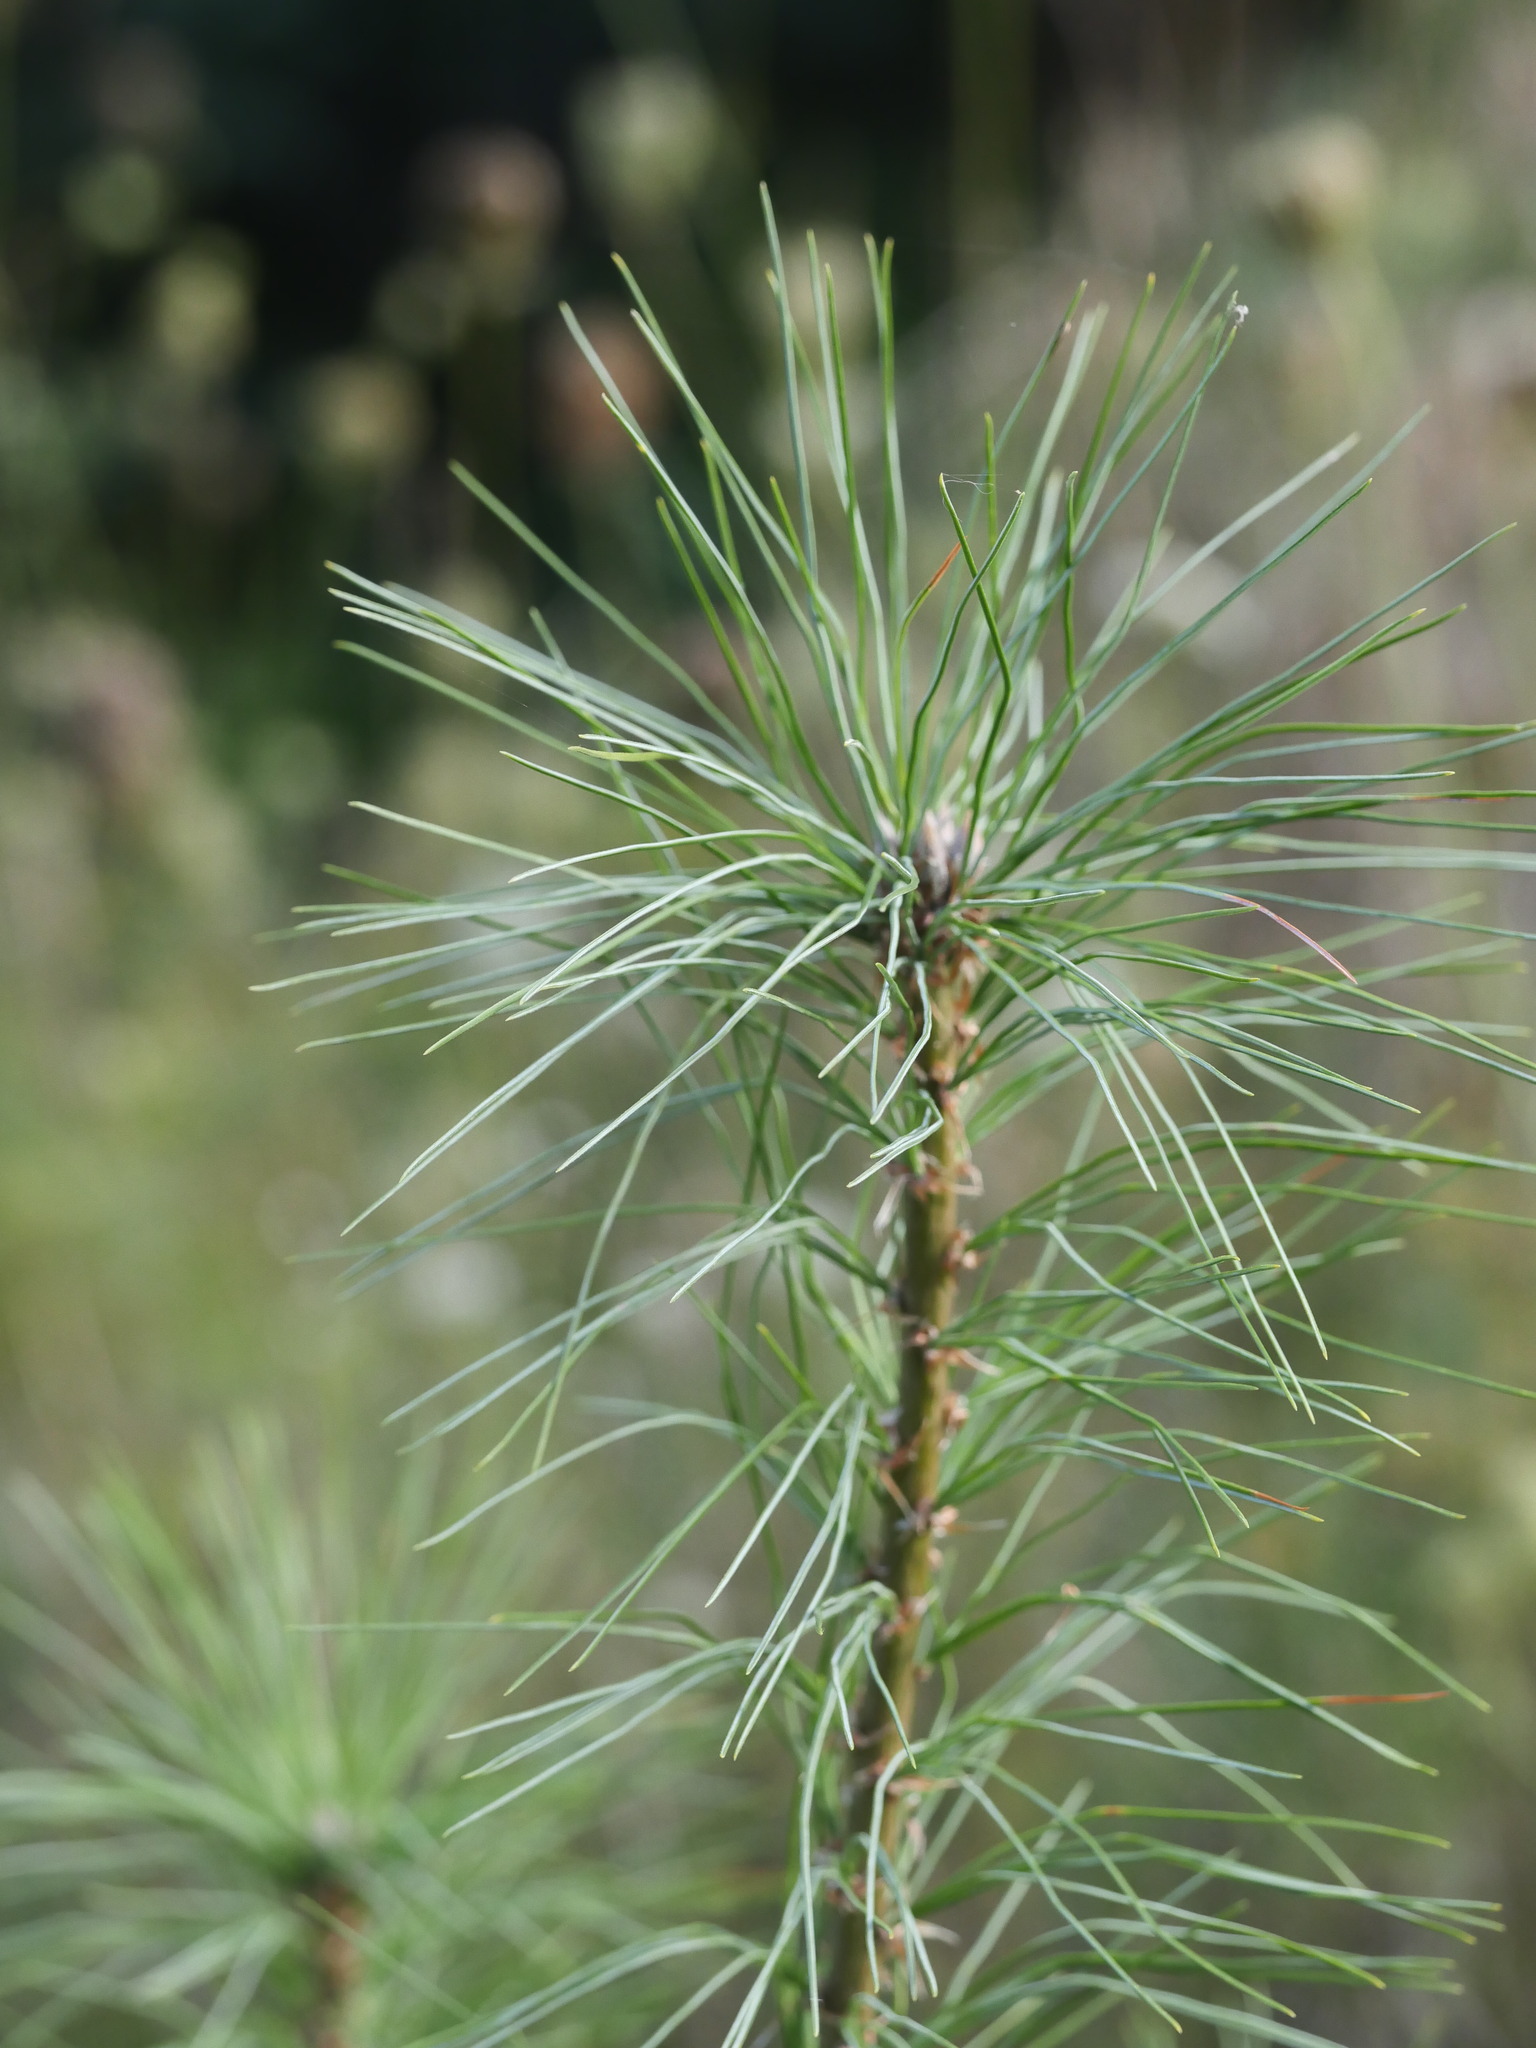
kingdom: Plantae
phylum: Tracheophyta
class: Pinopsida
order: Pinales
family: Pinaceae
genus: Pinus
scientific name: Pinus strobus
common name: Weymouth pine
